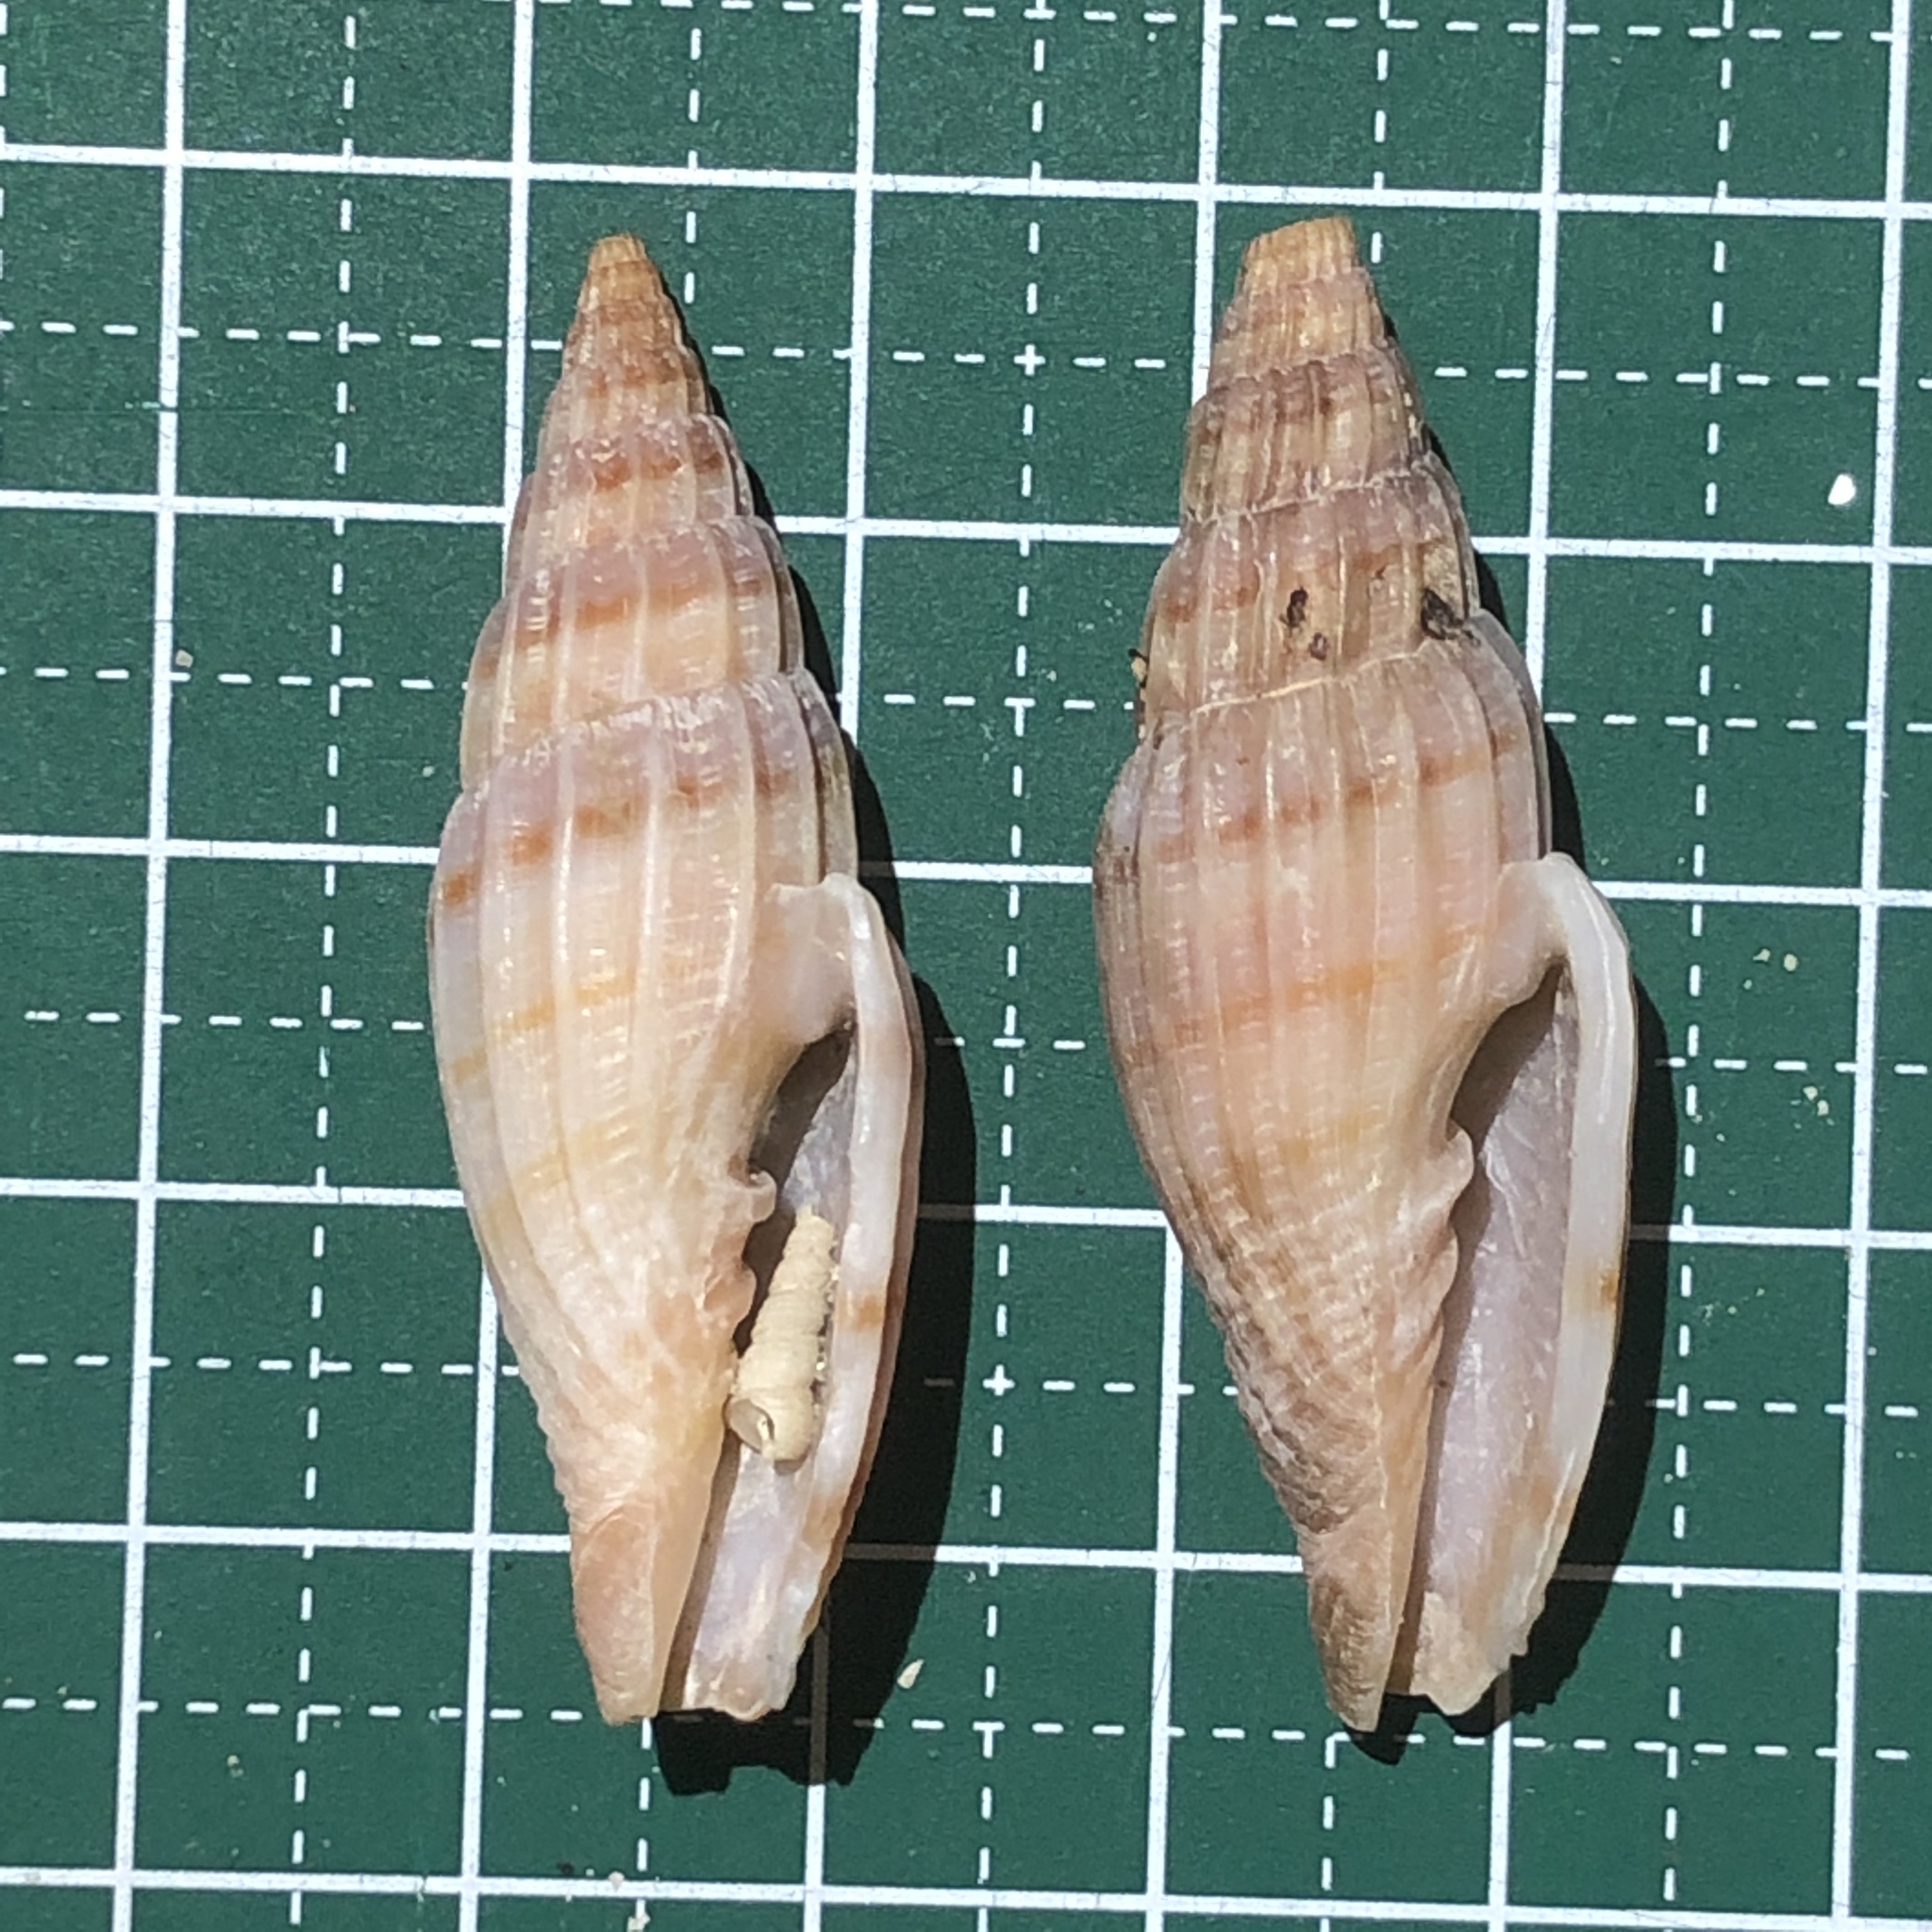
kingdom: Animalia
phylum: Mollusca
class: Gastropoda
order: Neogastropoda
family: Costellariidae
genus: Vexillum
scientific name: Vexillum lyratum
